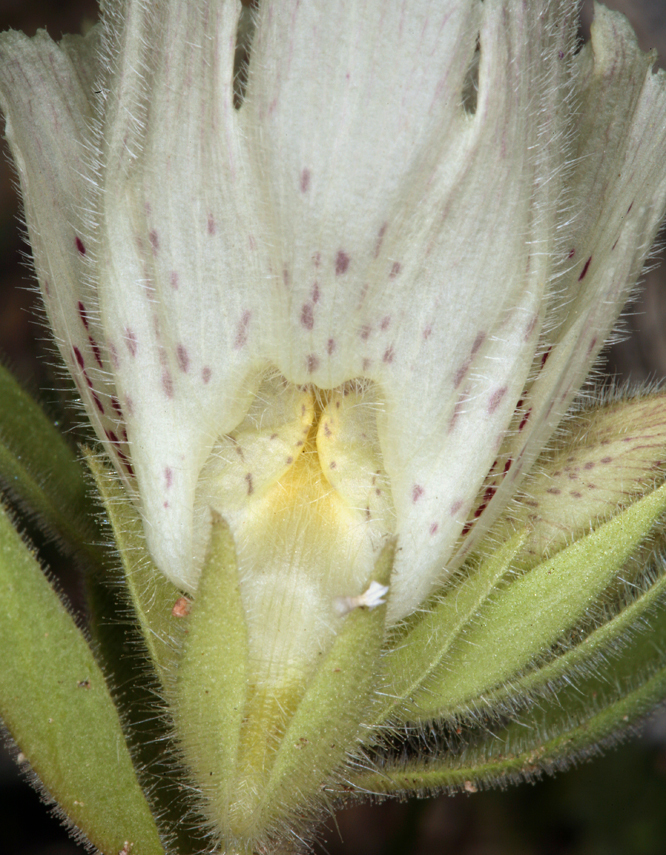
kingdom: Plantae
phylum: Tracheophyta
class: Magnoliopsida
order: Lamiales
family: Plantaginaceae
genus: Mohavea
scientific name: Mohavea confertiflora
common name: Ghost flower
